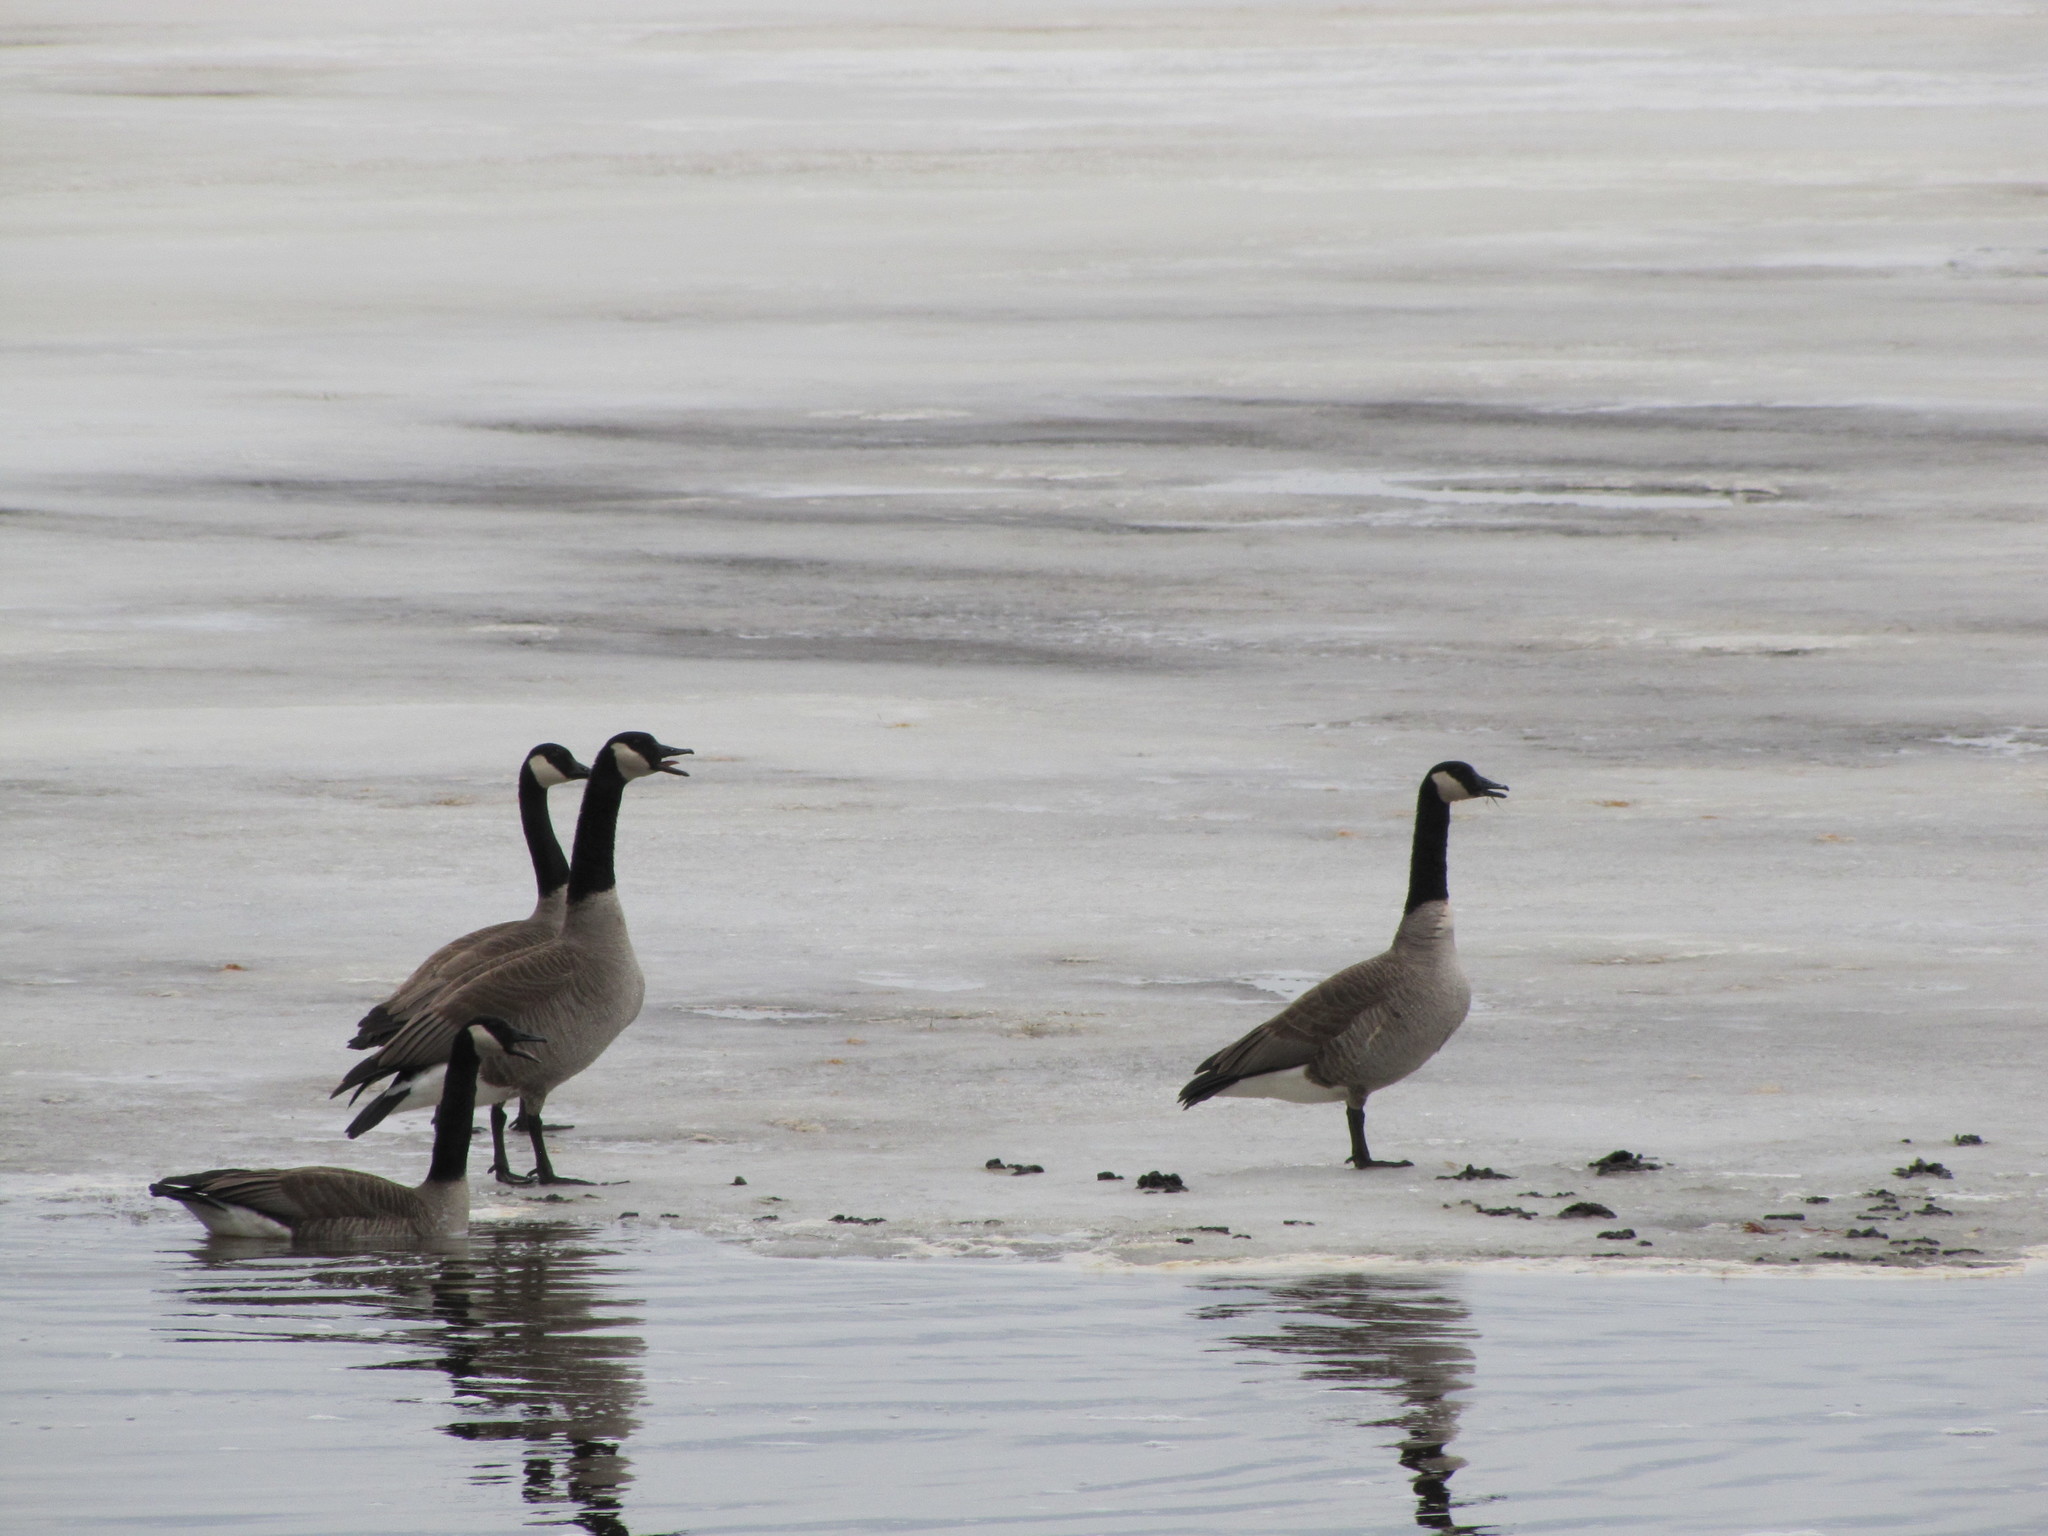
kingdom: Animalia
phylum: Chordata
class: Aves
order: Anseriformes
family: Anatidae
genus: Branta
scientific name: Branta canadensis
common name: Canada goose
